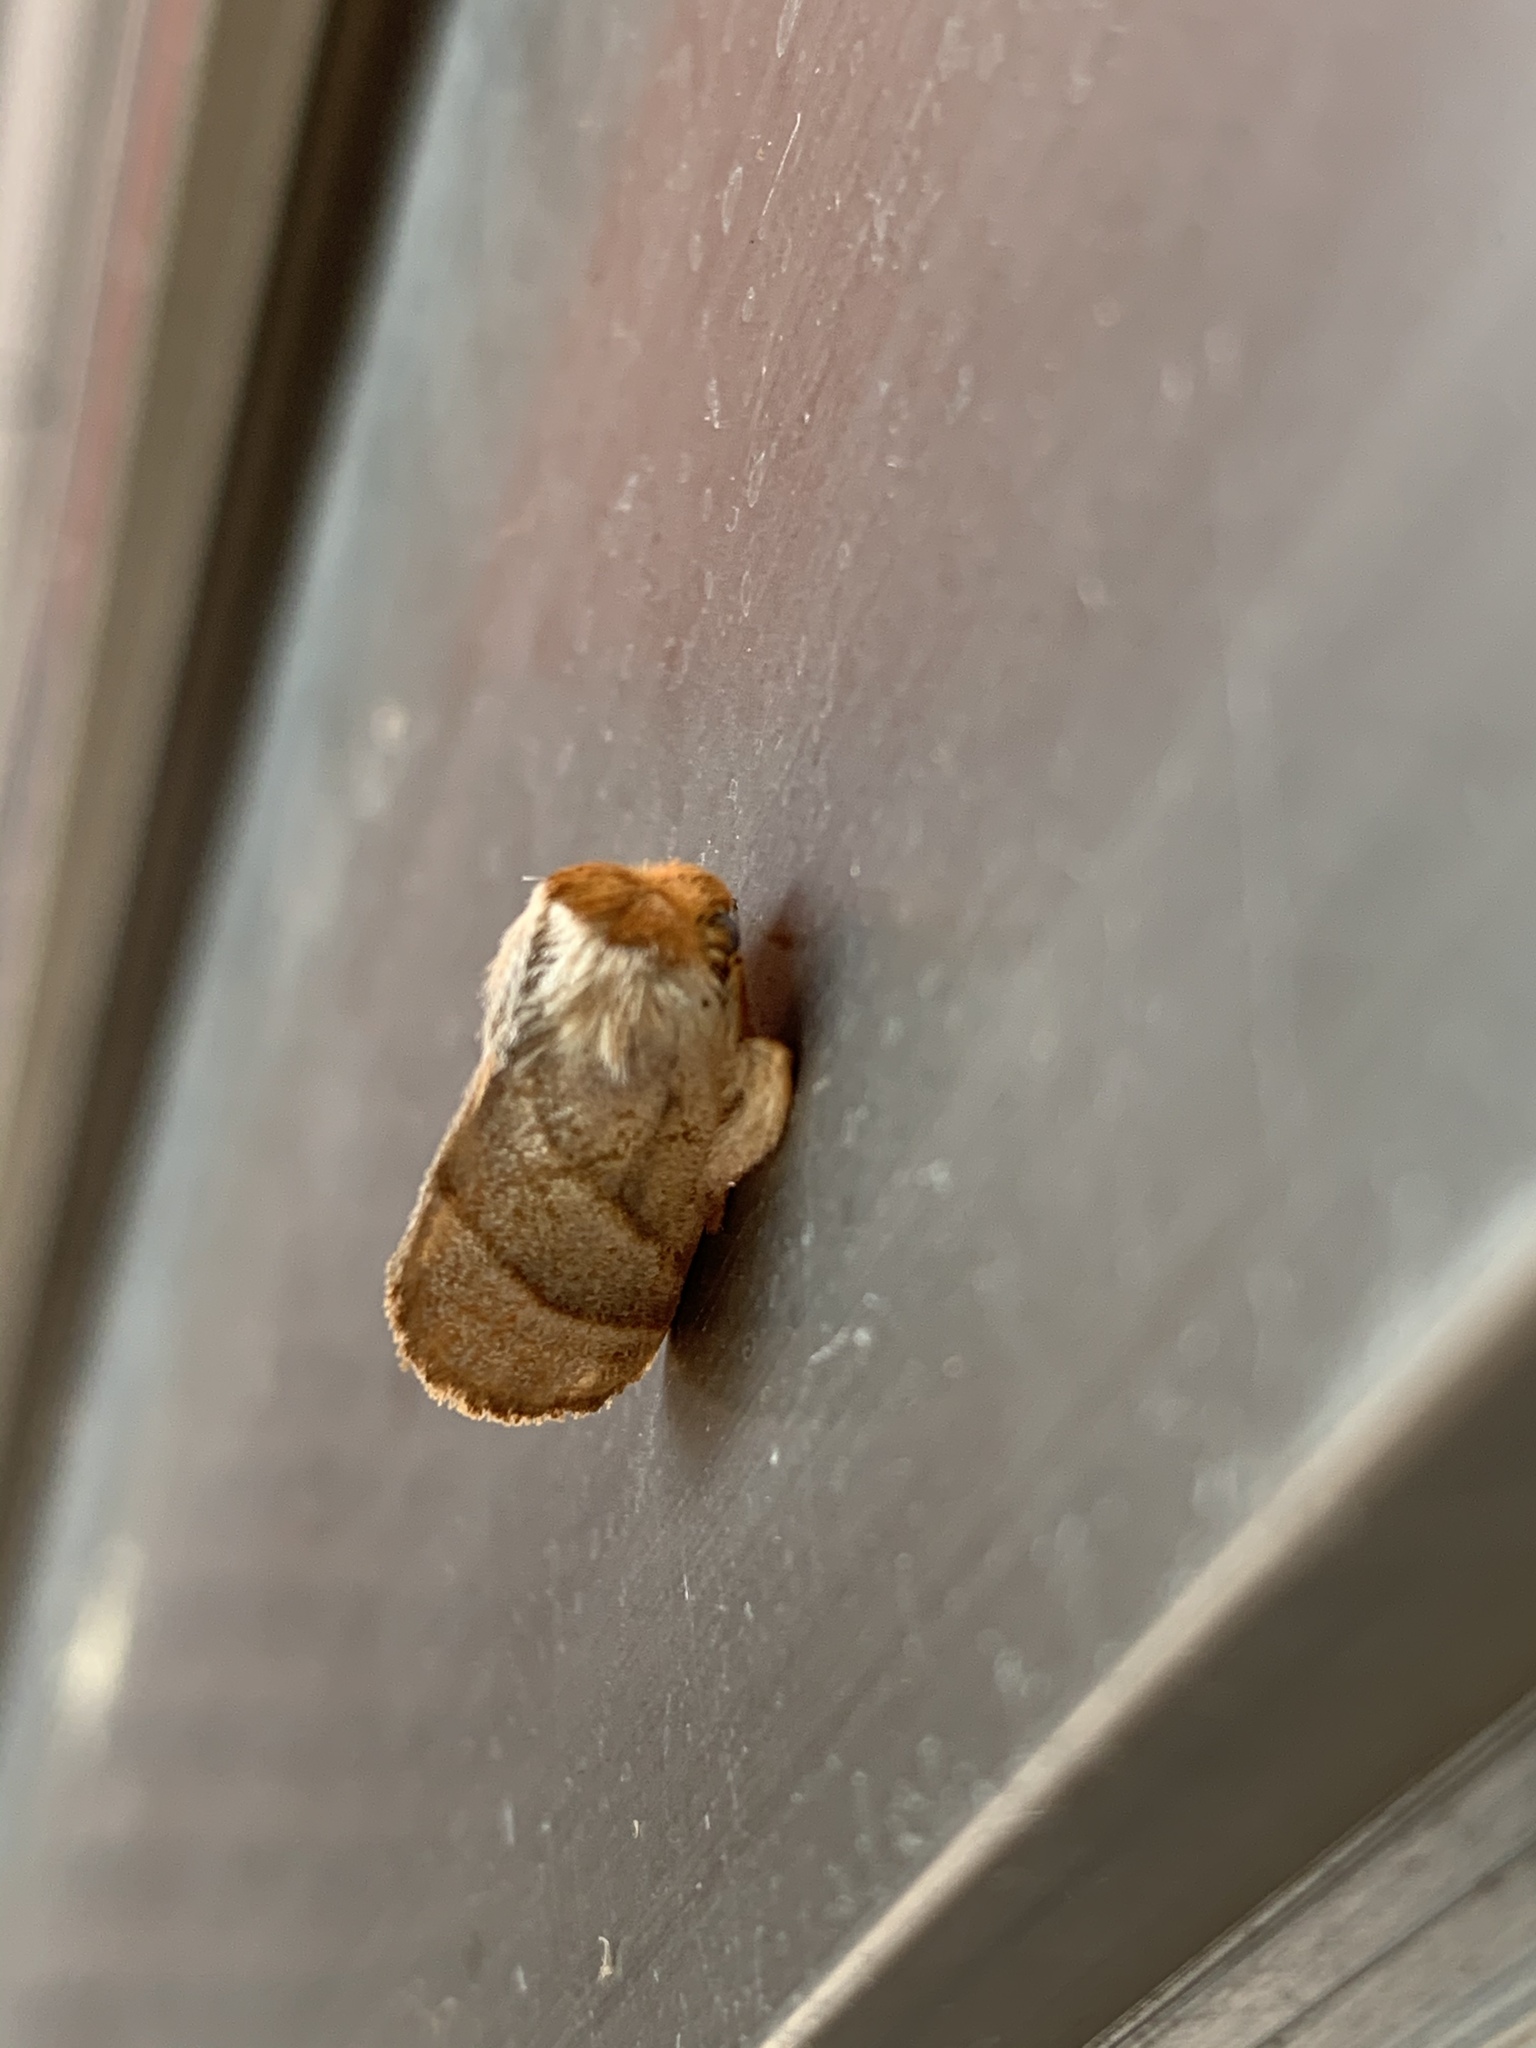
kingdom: Animalia
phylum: Arthropoda
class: Insecta
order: Lepidoptera
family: Limacodidae
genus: Cania
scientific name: Cania heppneri
